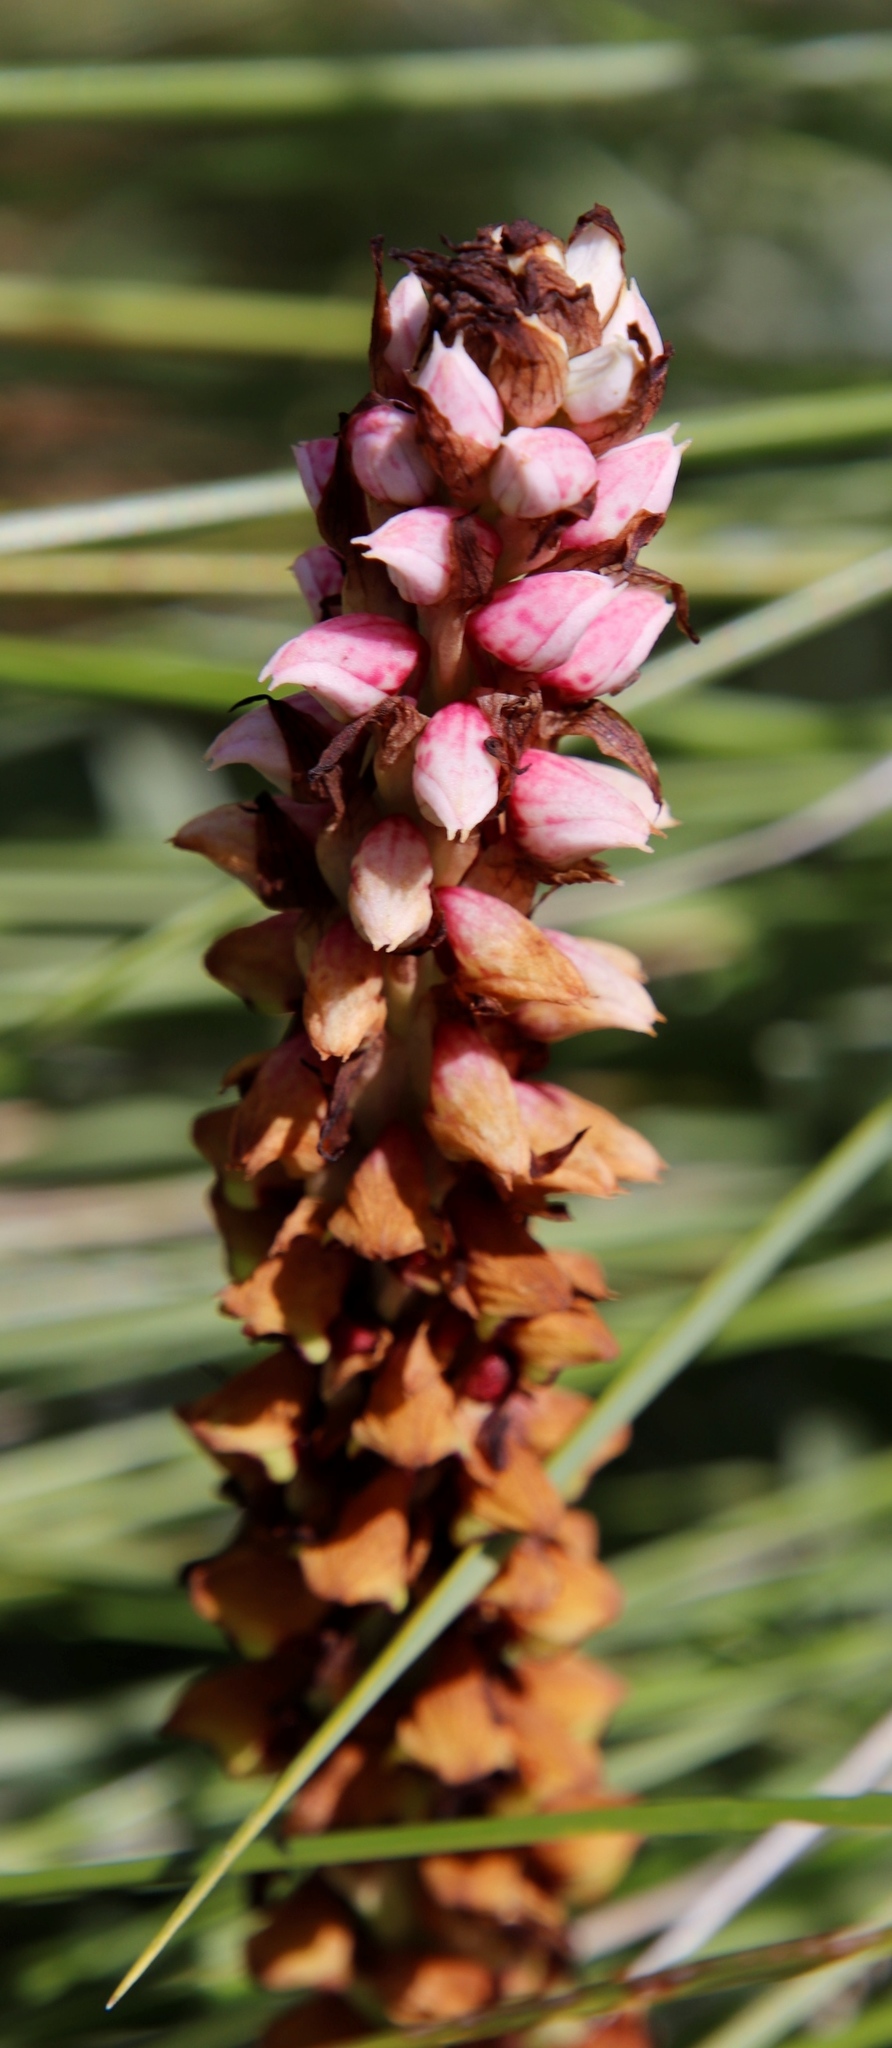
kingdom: Plantae
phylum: Tracheophyta
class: Liliopsida
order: Asparagales
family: Orchidaceae
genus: Disa
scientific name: Disa versicolor
